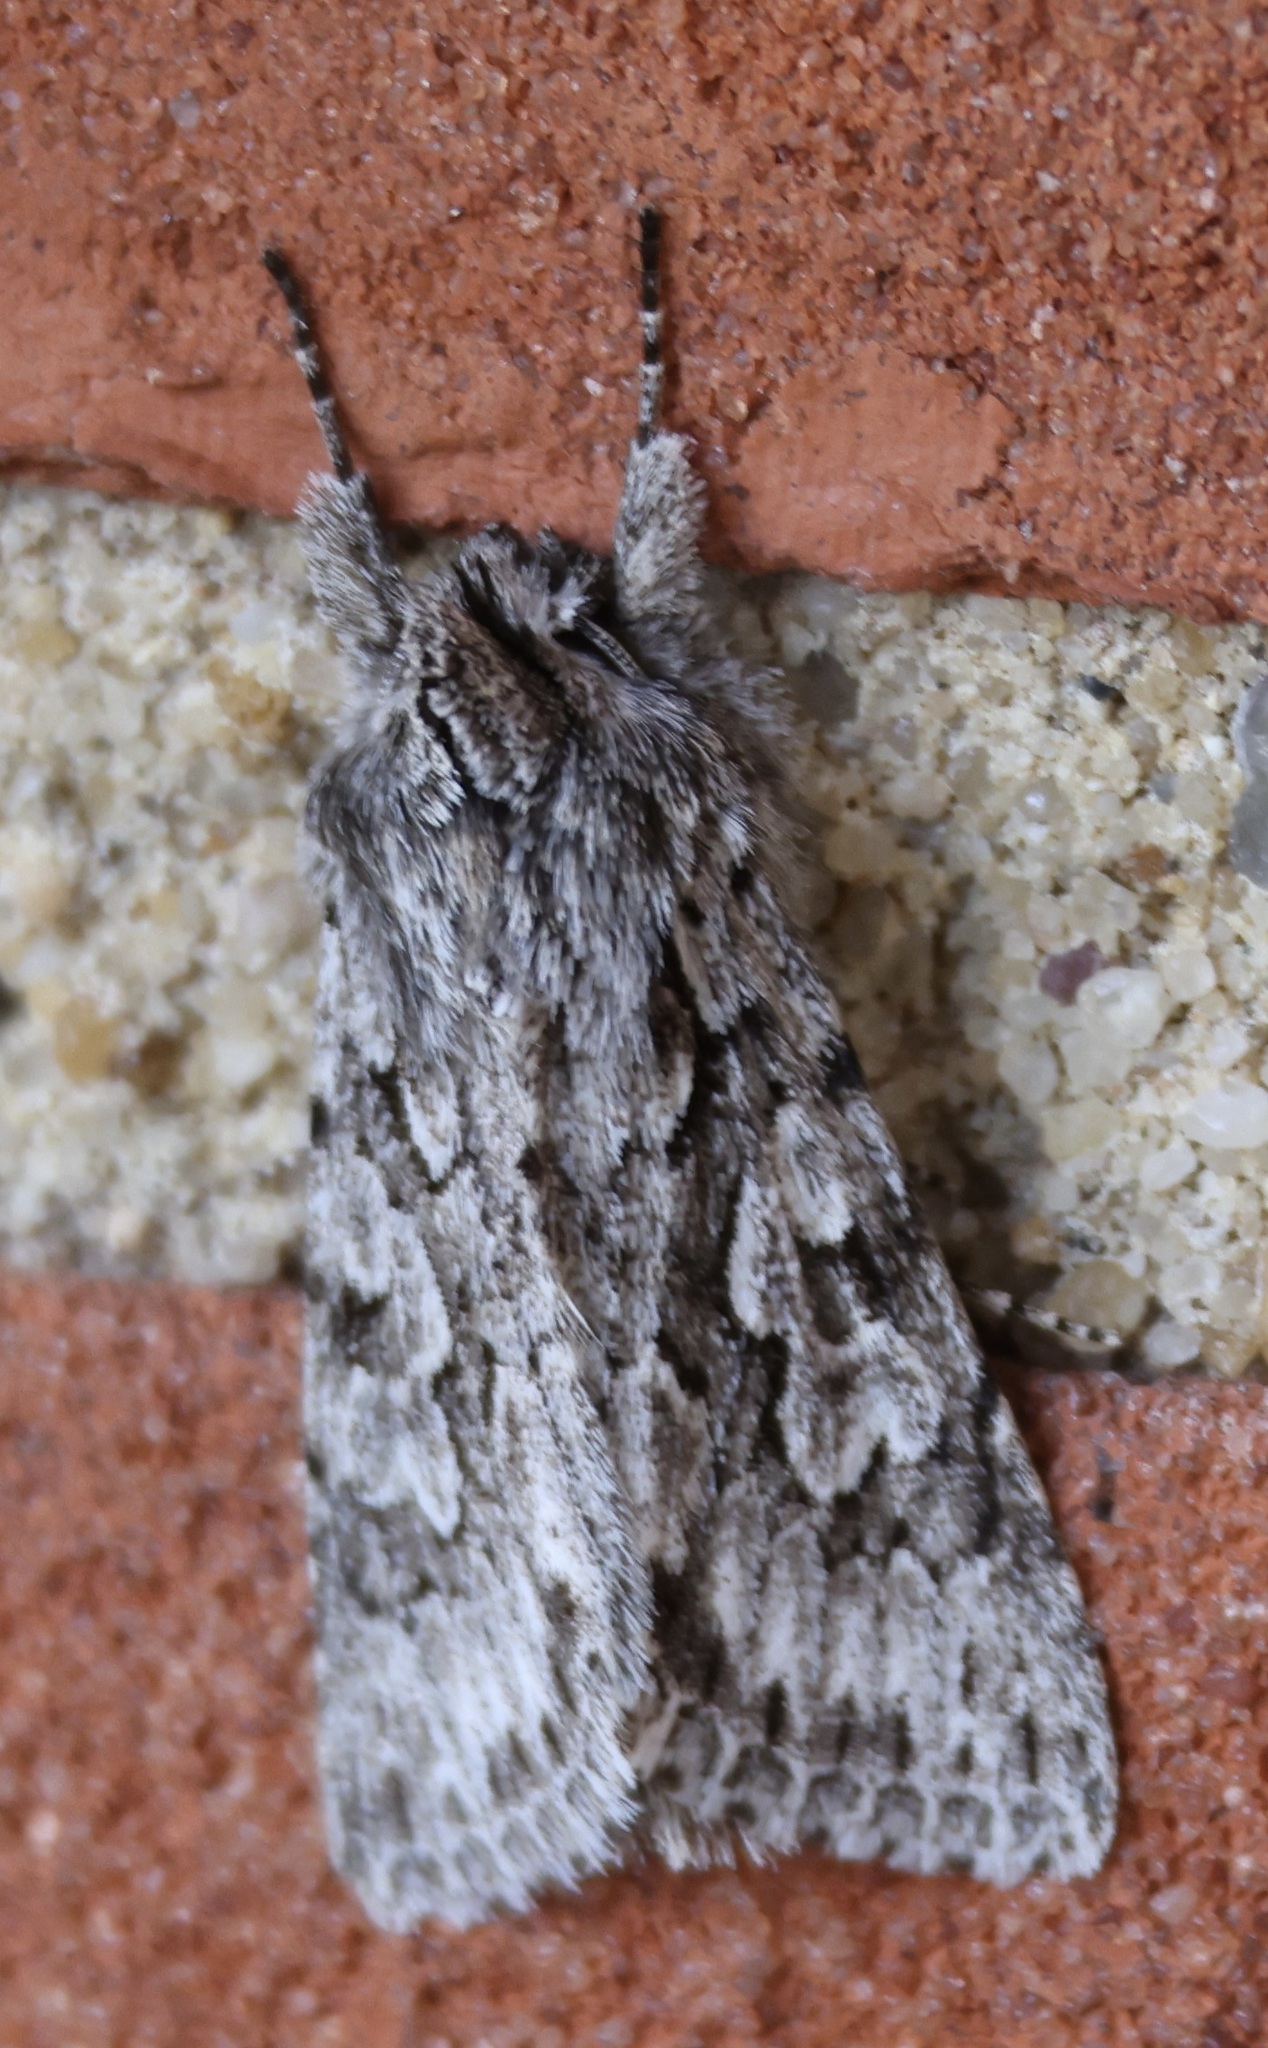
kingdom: Animalia
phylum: Arthropoda
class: Insecta
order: Lepidoptera
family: Noctuidae
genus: Xylocampa
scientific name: Xylocampa areola
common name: Early grey
